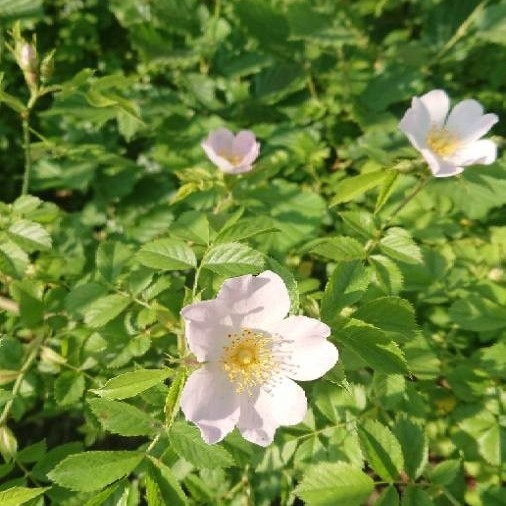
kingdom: Plantae
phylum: Tracheophyta
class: Magnoliopsida
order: Rosales
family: Rosaceae
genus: Rosa
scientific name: Rosa canina
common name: Dog rose
